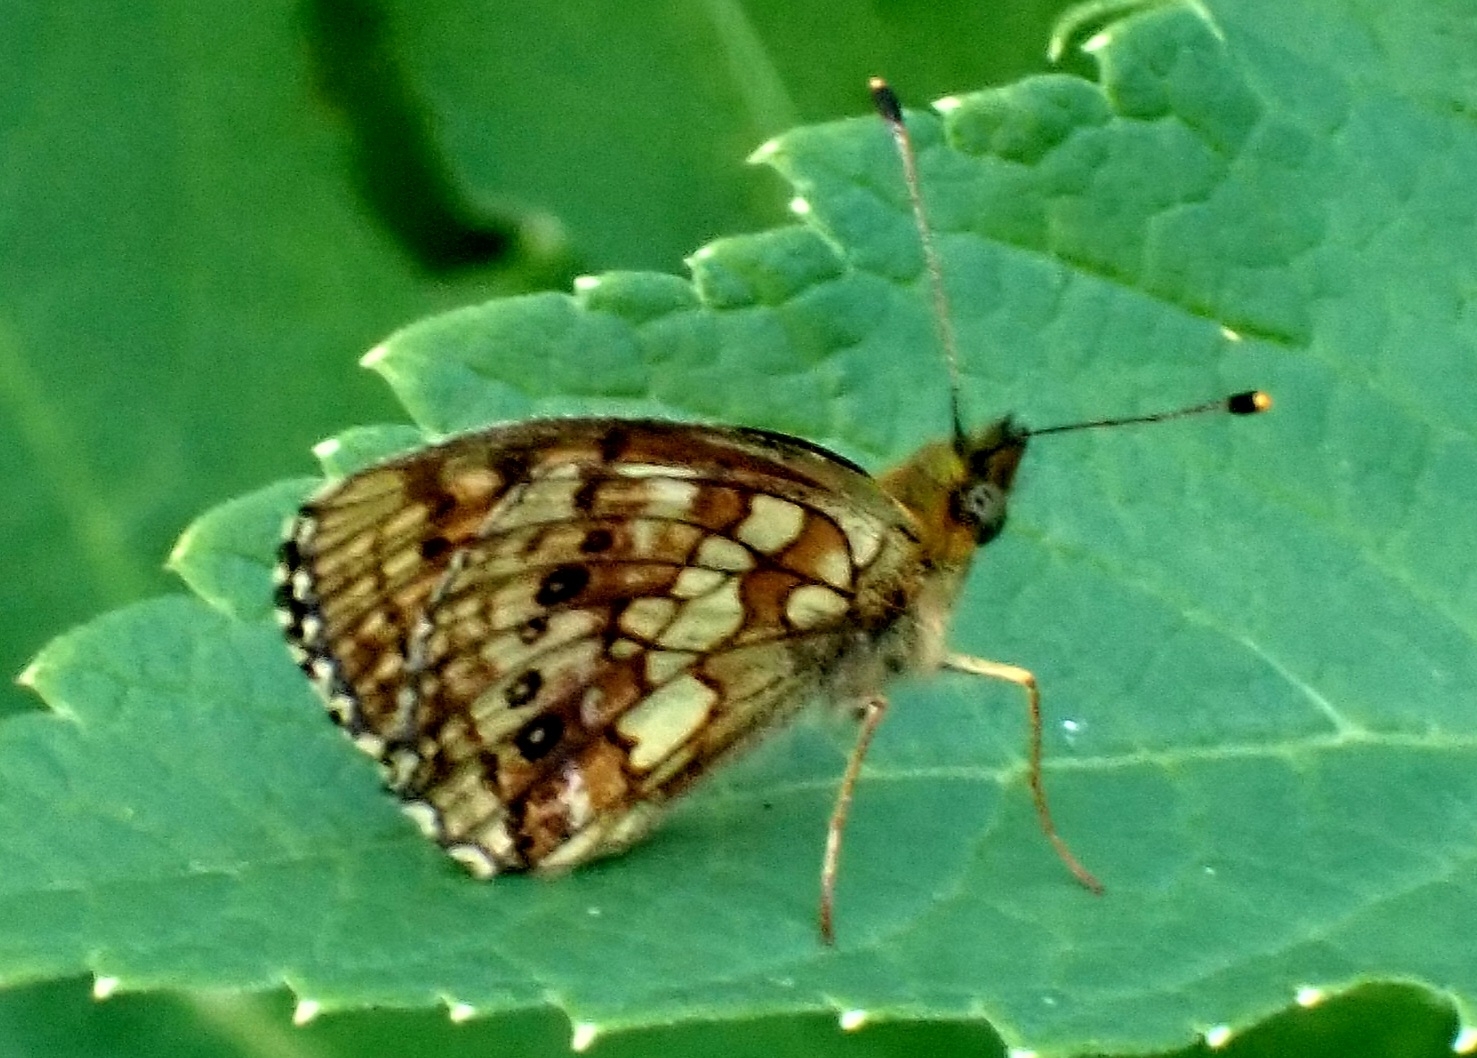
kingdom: Animalia
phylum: Arthropoda
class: Insecta
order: Lepidoptera
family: Nymphalidae
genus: Brenthis
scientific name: Brenthis ino
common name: Lesser marbled fritillary
